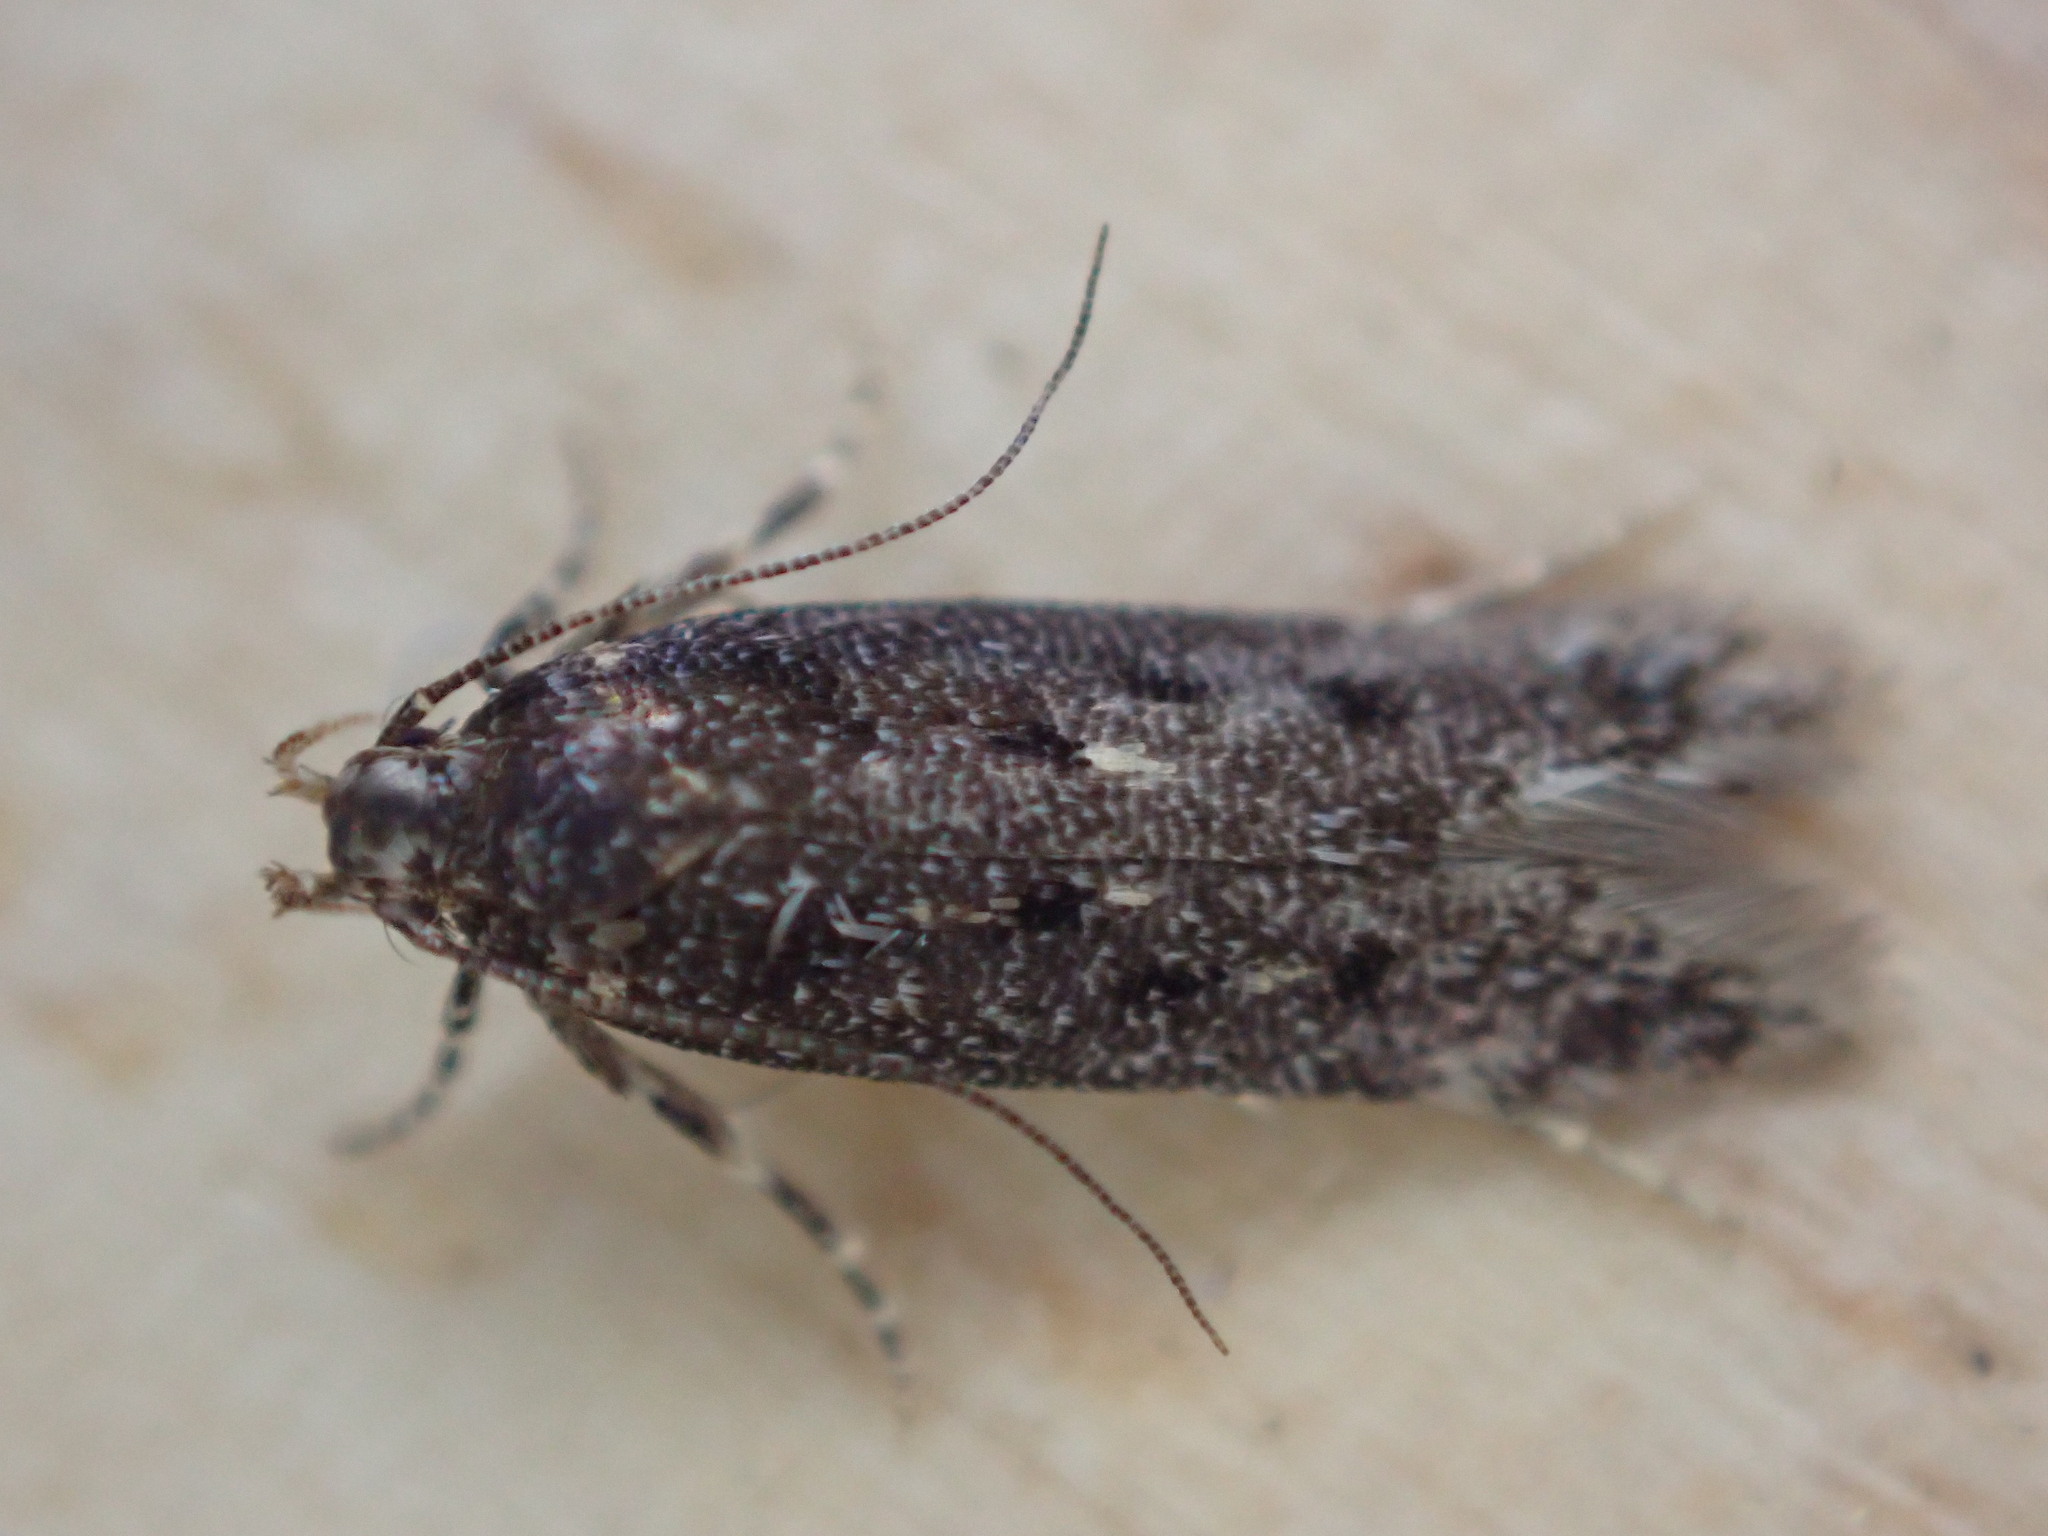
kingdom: Animalia
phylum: Arthropoda
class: Insecta
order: Lepidoptera
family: Gelechiidae
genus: Bryotropha
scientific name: Bryotropha affinis
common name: Dark groundling
